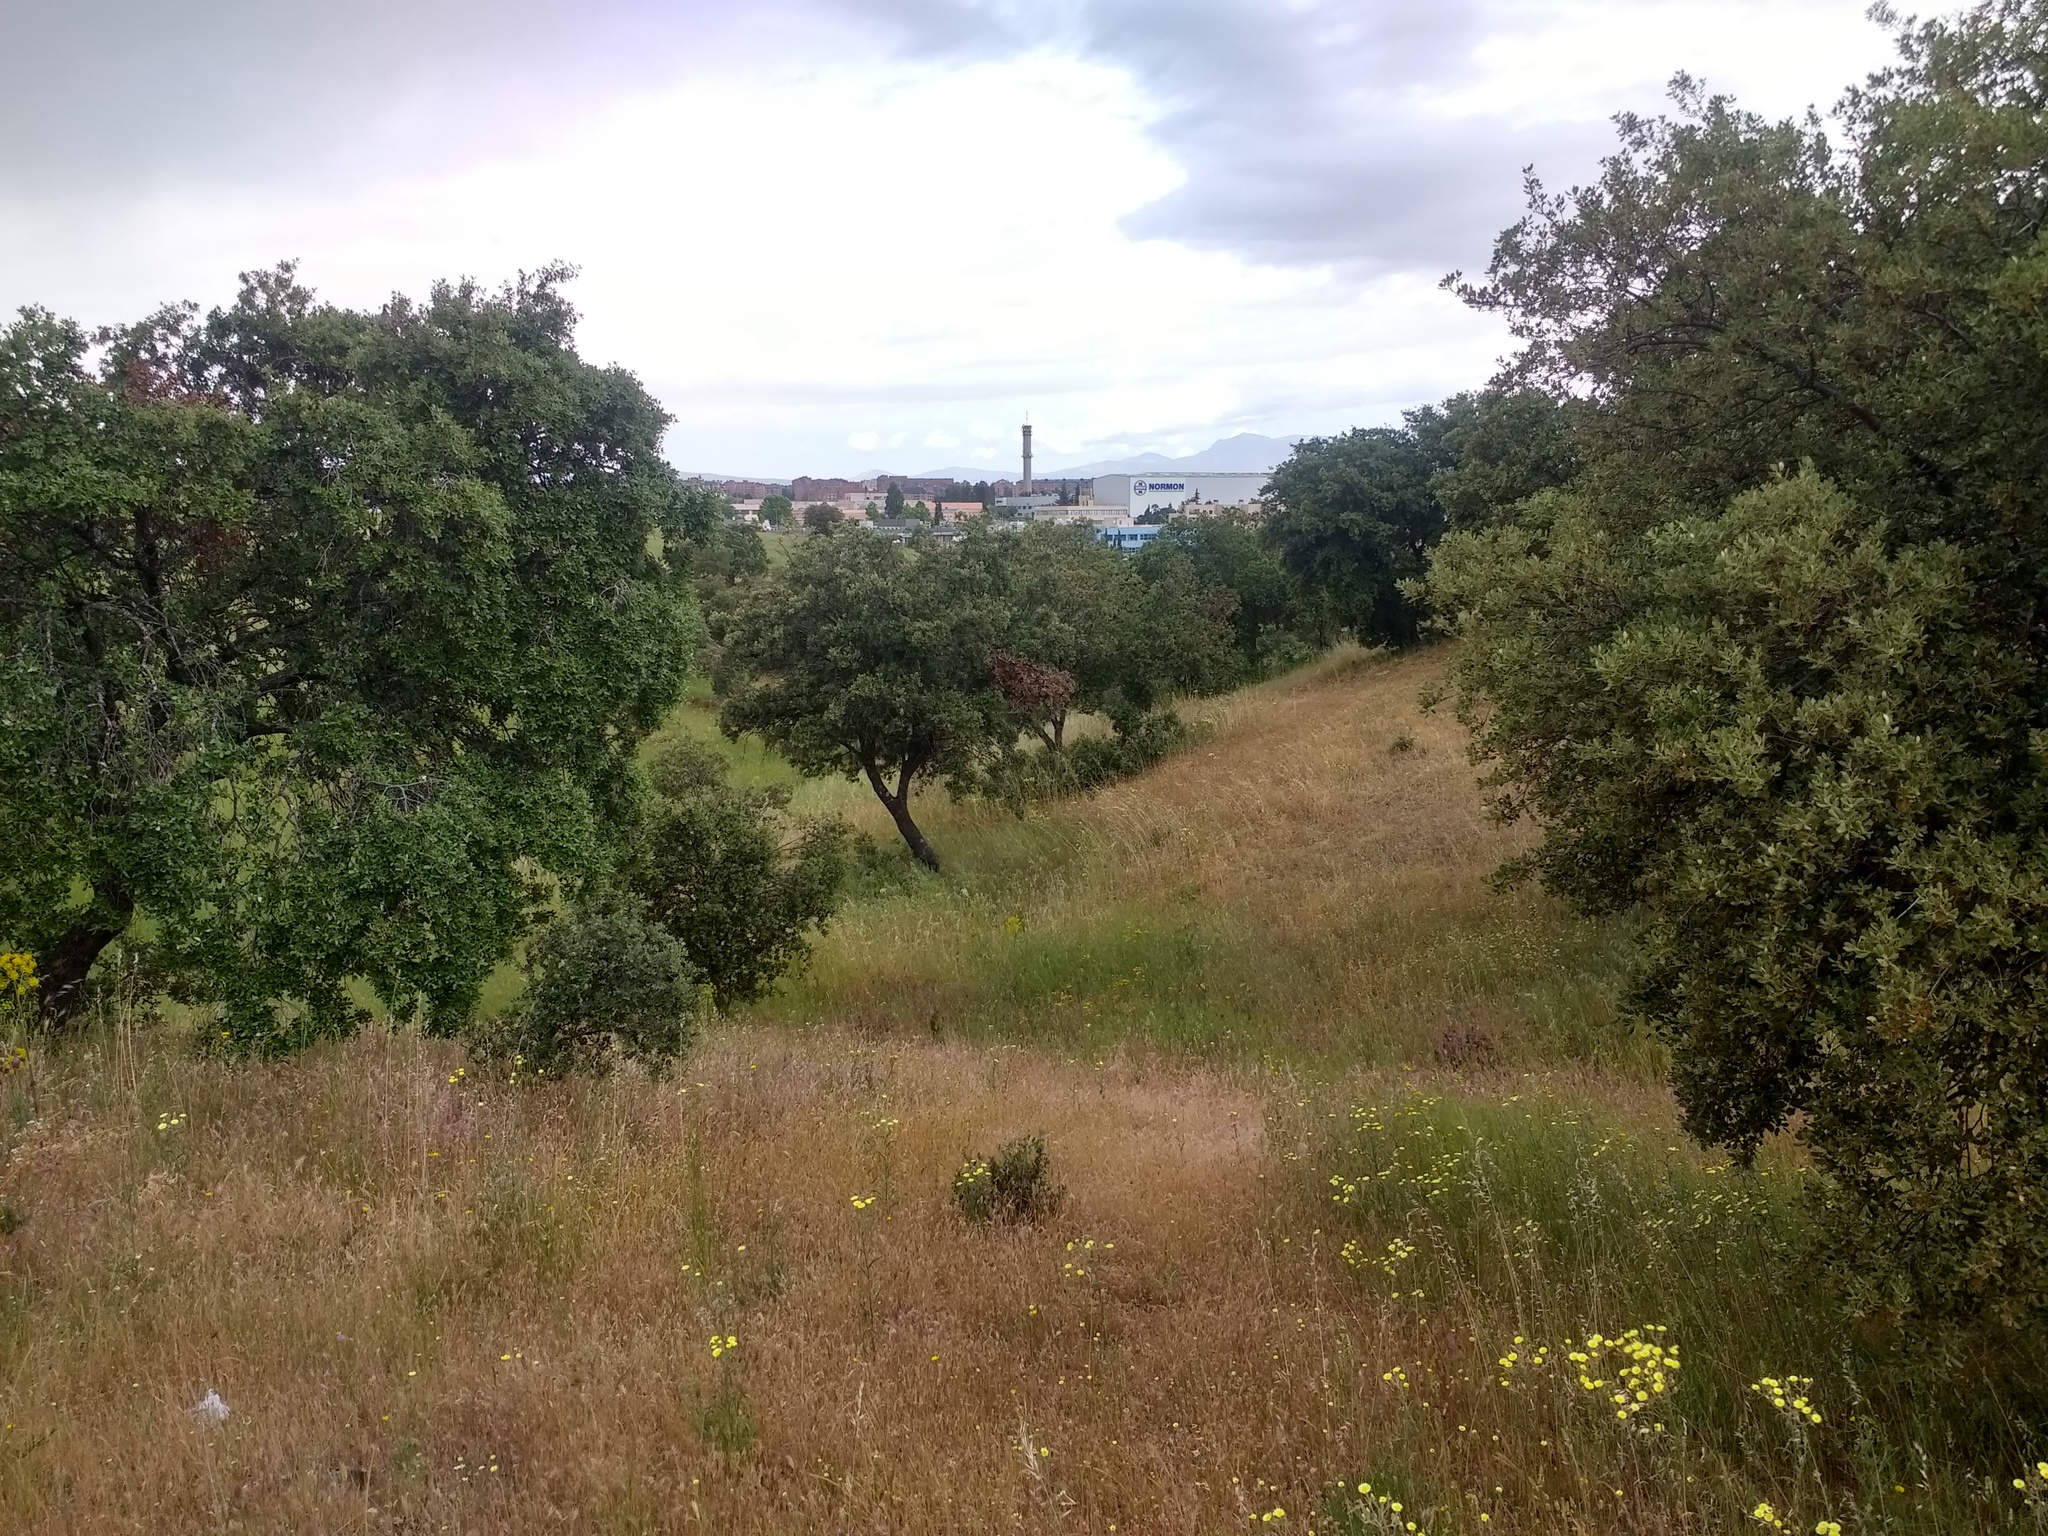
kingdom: Plantae
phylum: Tracheophyta
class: Magnoliopsida
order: Fagales
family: Fagaceae
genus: Quercus
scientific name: Quercus rotundifolia
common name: Holm oak
